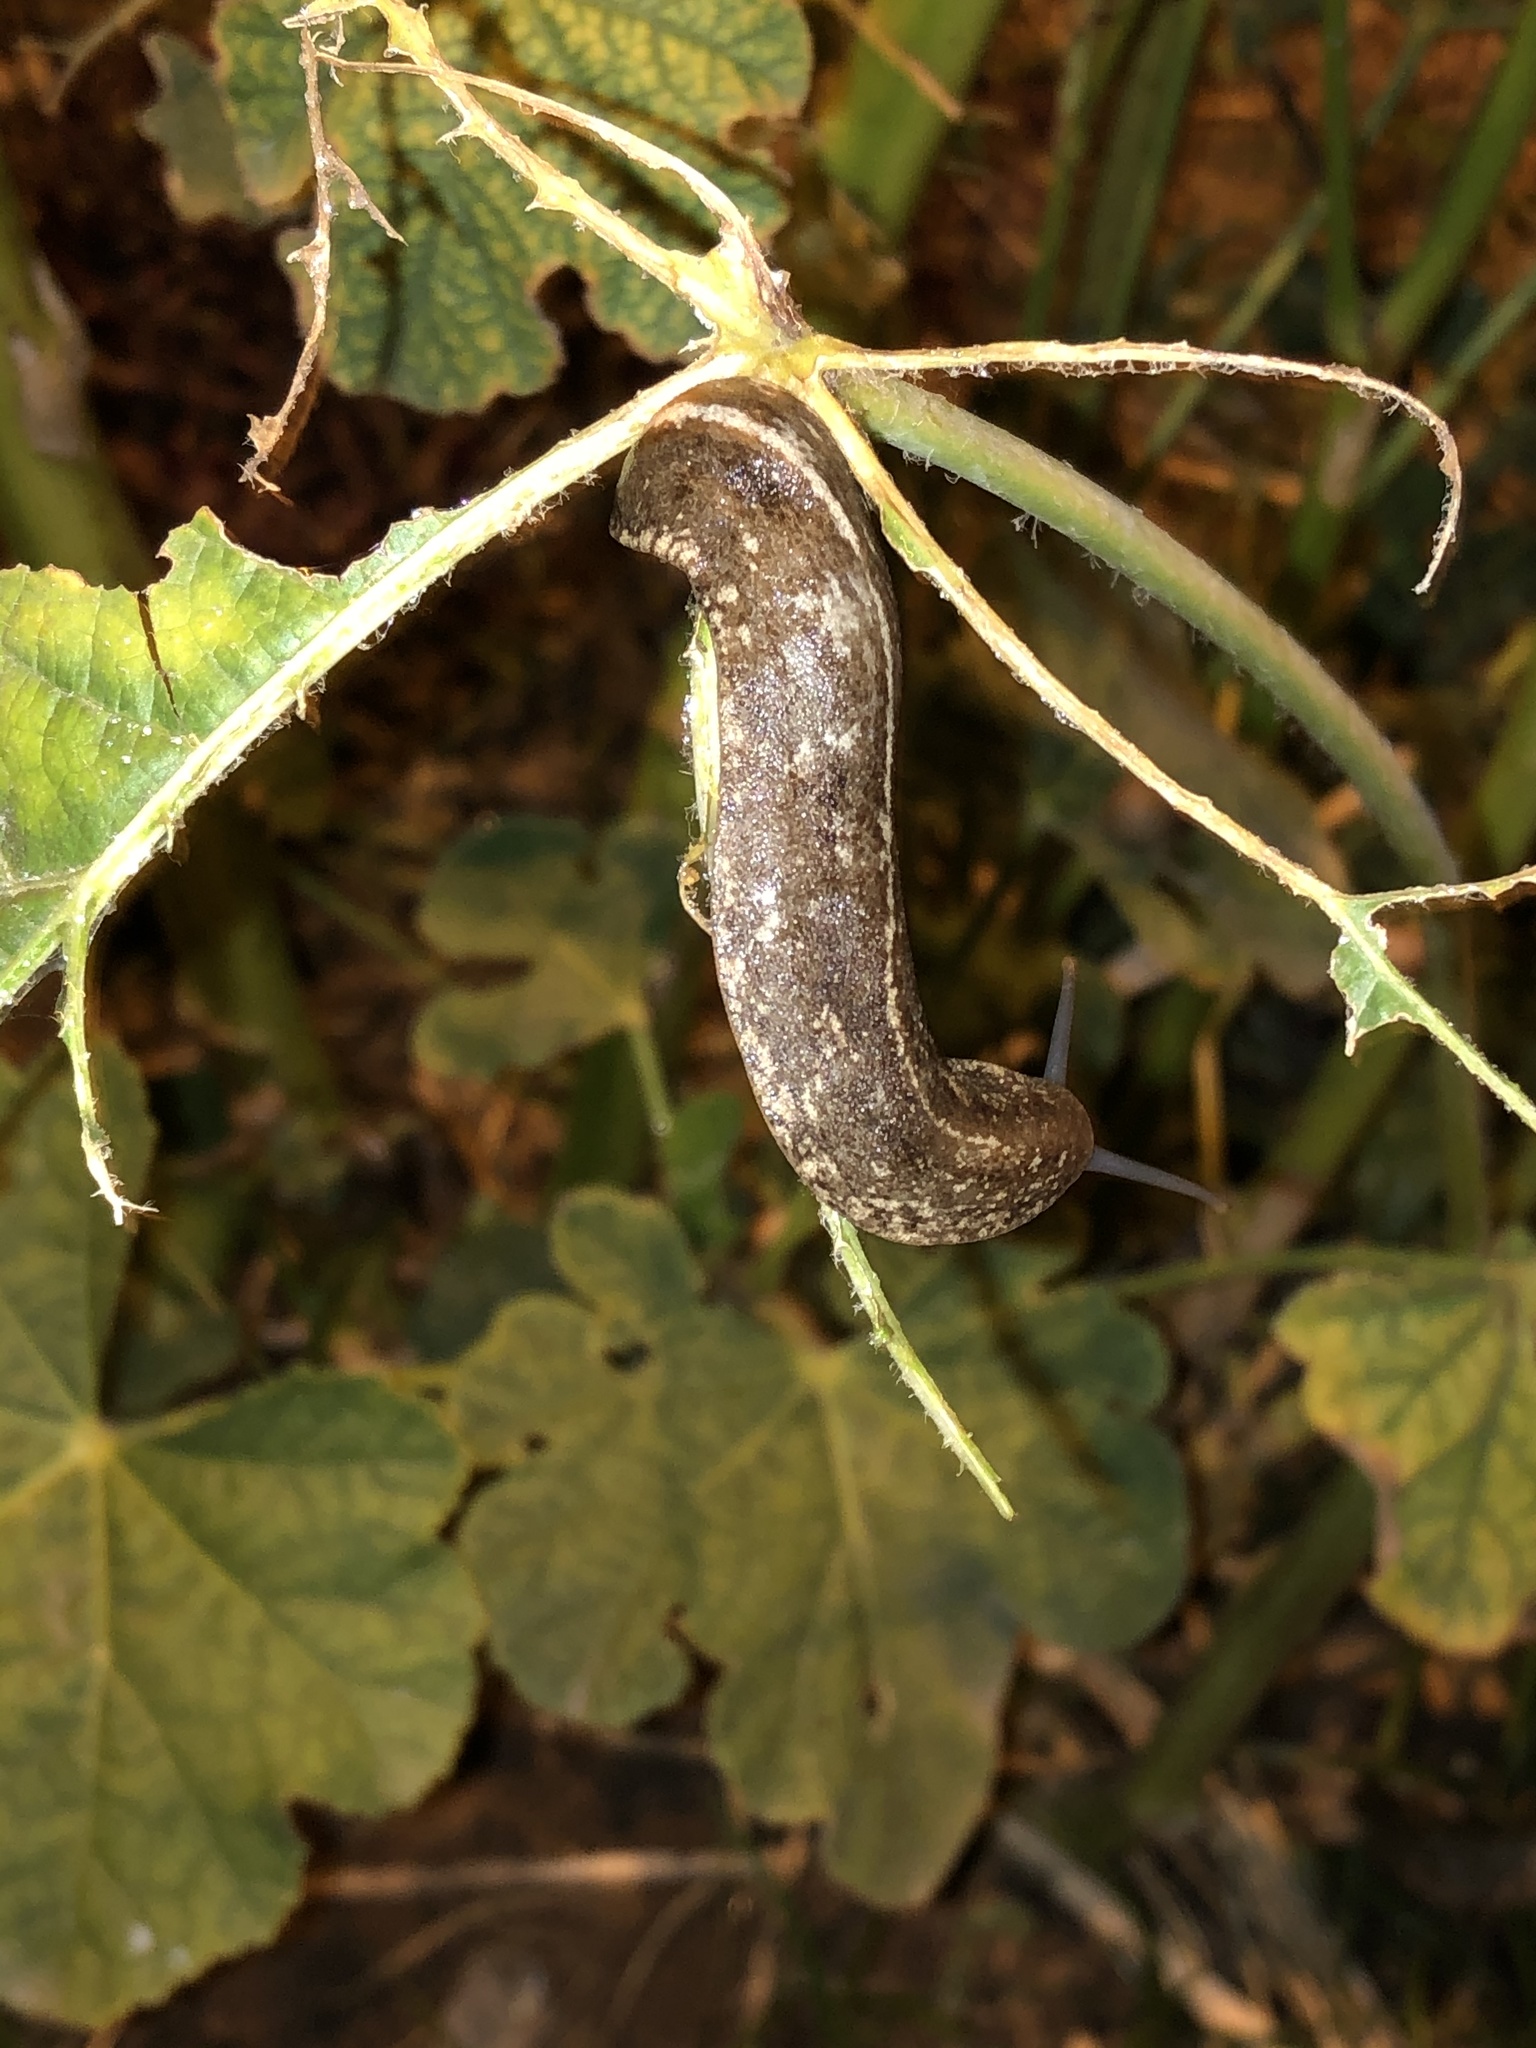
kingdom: Animalia
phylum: Mollusca
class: Gastropoda
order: Systellommatophora
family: Veronicellidae
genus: Heterovaginina
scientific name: Heterovaginina limayana
